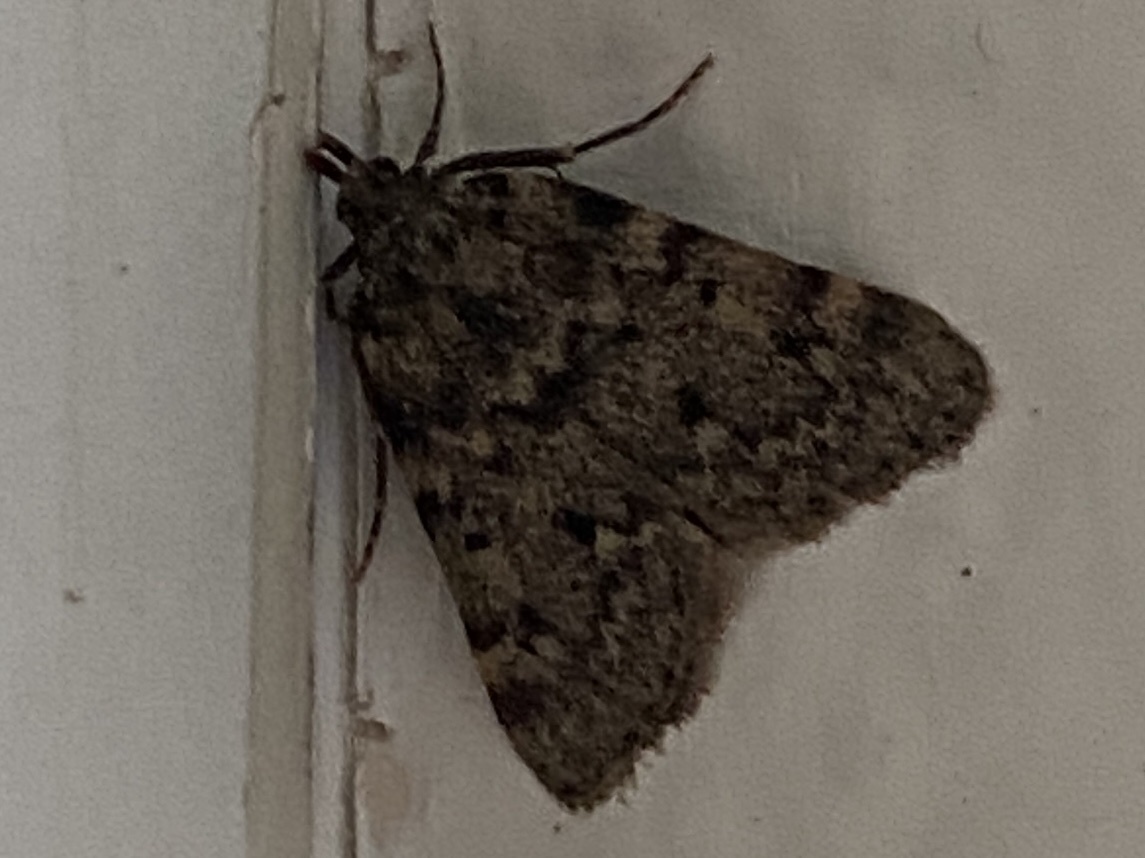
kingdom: Animalia
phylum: Arthropoda
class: Insecta
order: Lepidoptera
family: Pyralidae
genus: Aglossa
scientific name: Aglossa pinguinalis
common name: Large tabby
